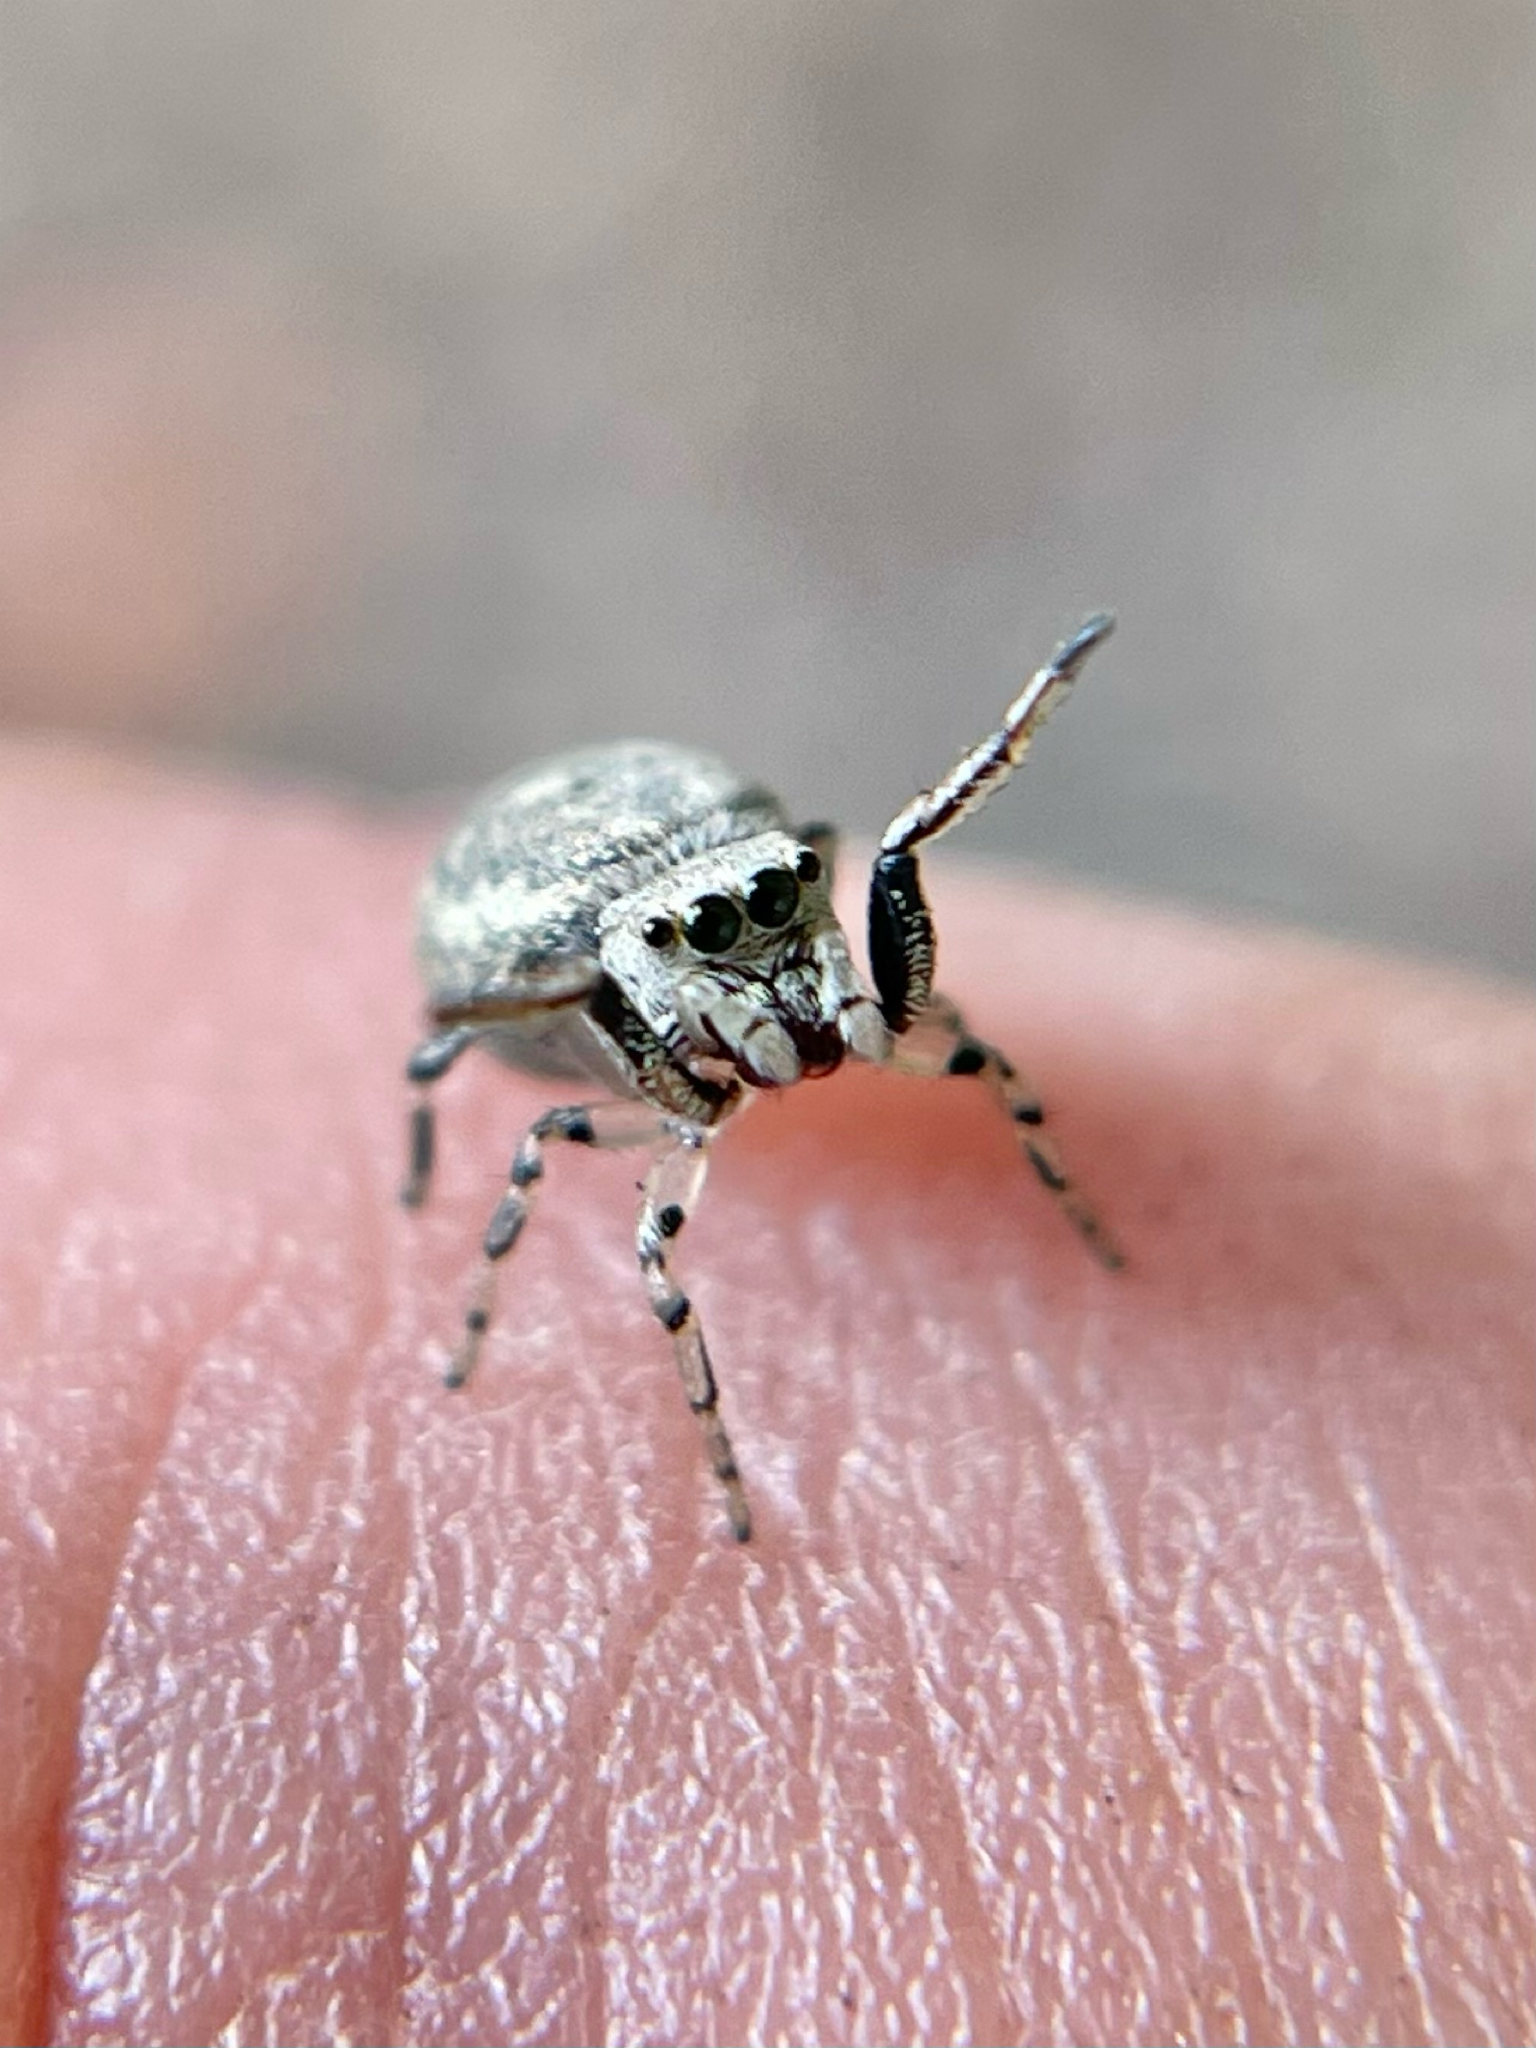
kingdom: Animalia
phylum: Arthropoda
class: Arachnida
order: Araneae
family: Salticidae
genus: Zygoballus
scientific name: Zygoballus rufipes
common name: Jumping spiders
